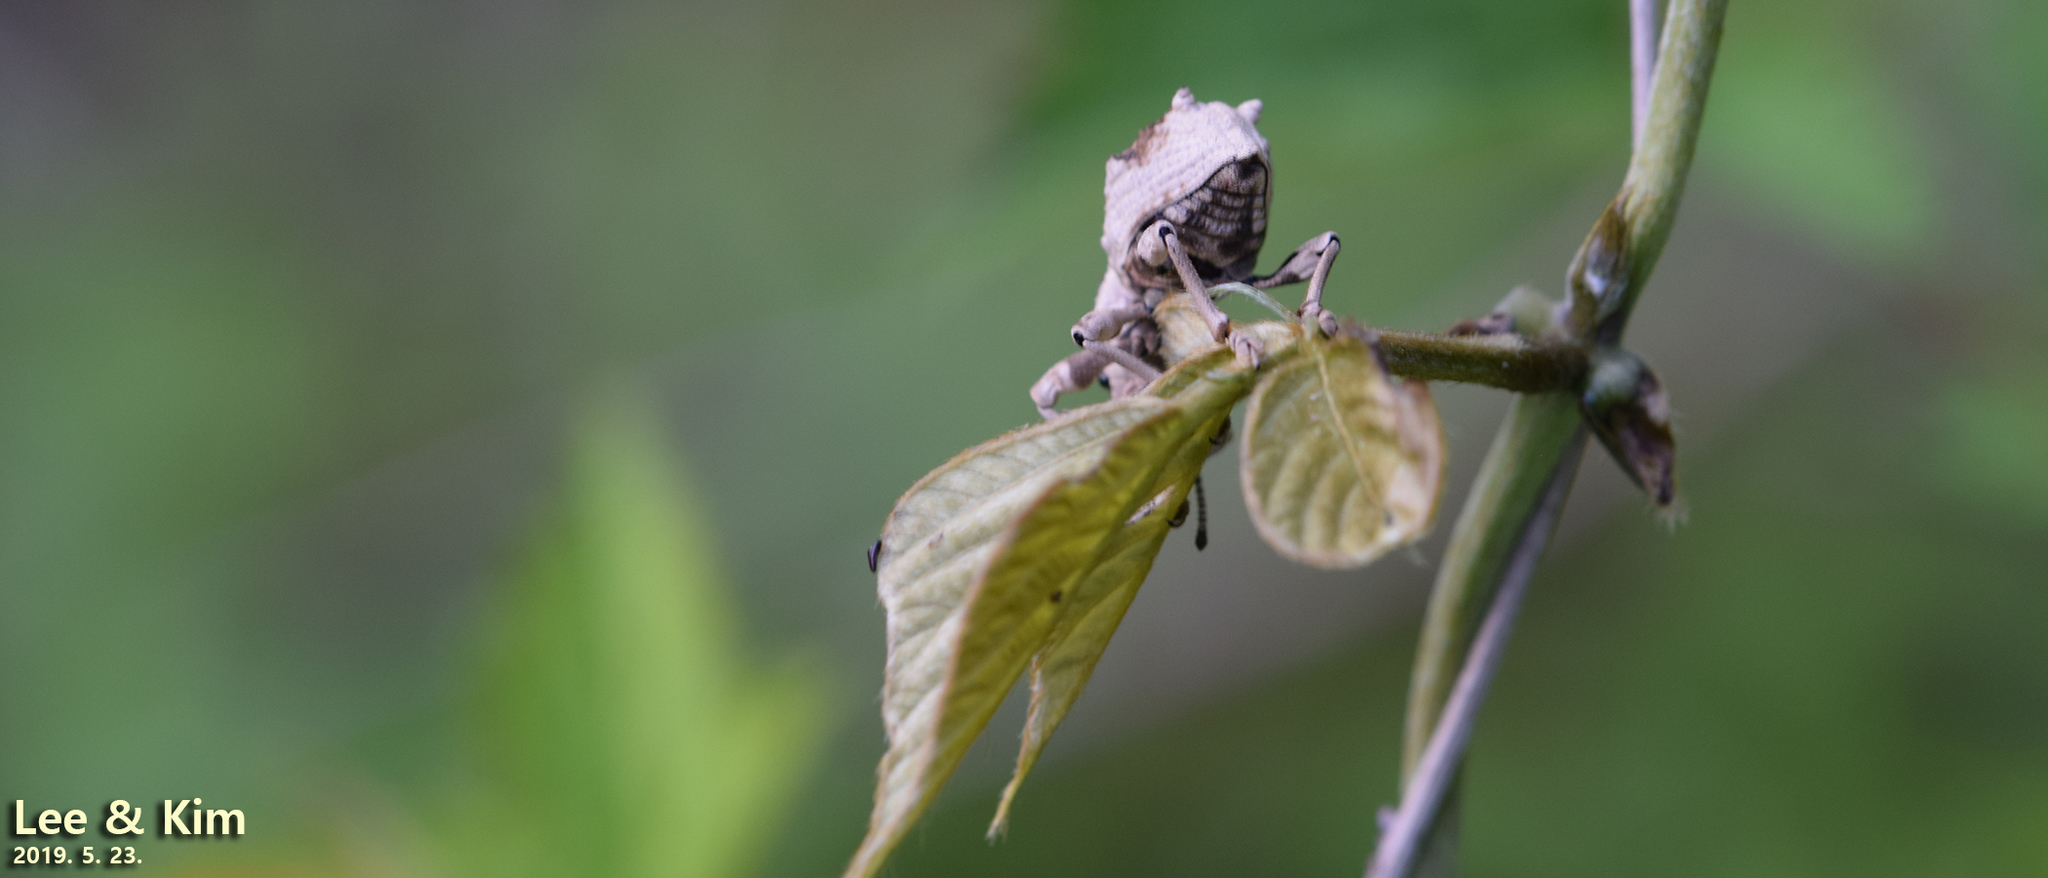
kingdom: Animalia
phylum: Arthropoda
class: Insecta
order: Coleoptera
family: Curculionidae
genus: Episomus
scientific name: Episomus turritus
